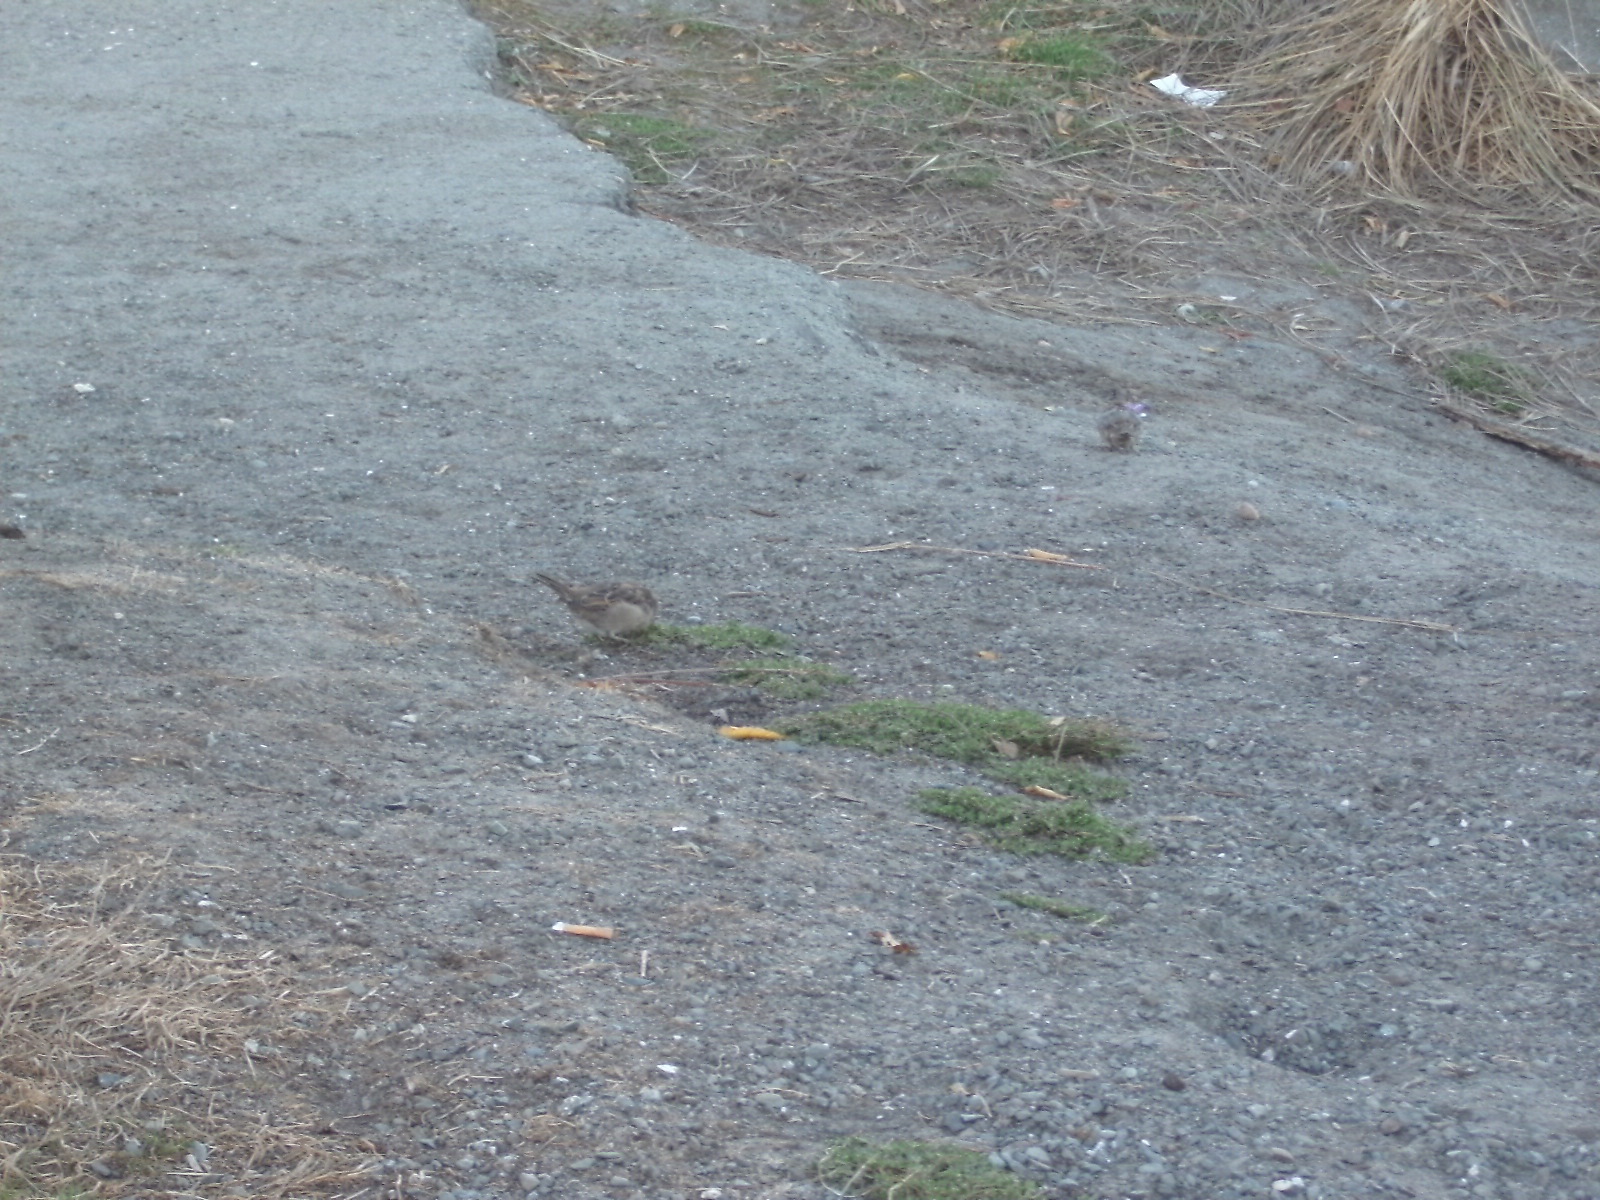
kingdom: Animalia
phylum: Chordata
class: Aves
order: Passeriformes
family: Passeridae
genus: Passer
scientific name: Passer domesticus
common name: House sparrow
